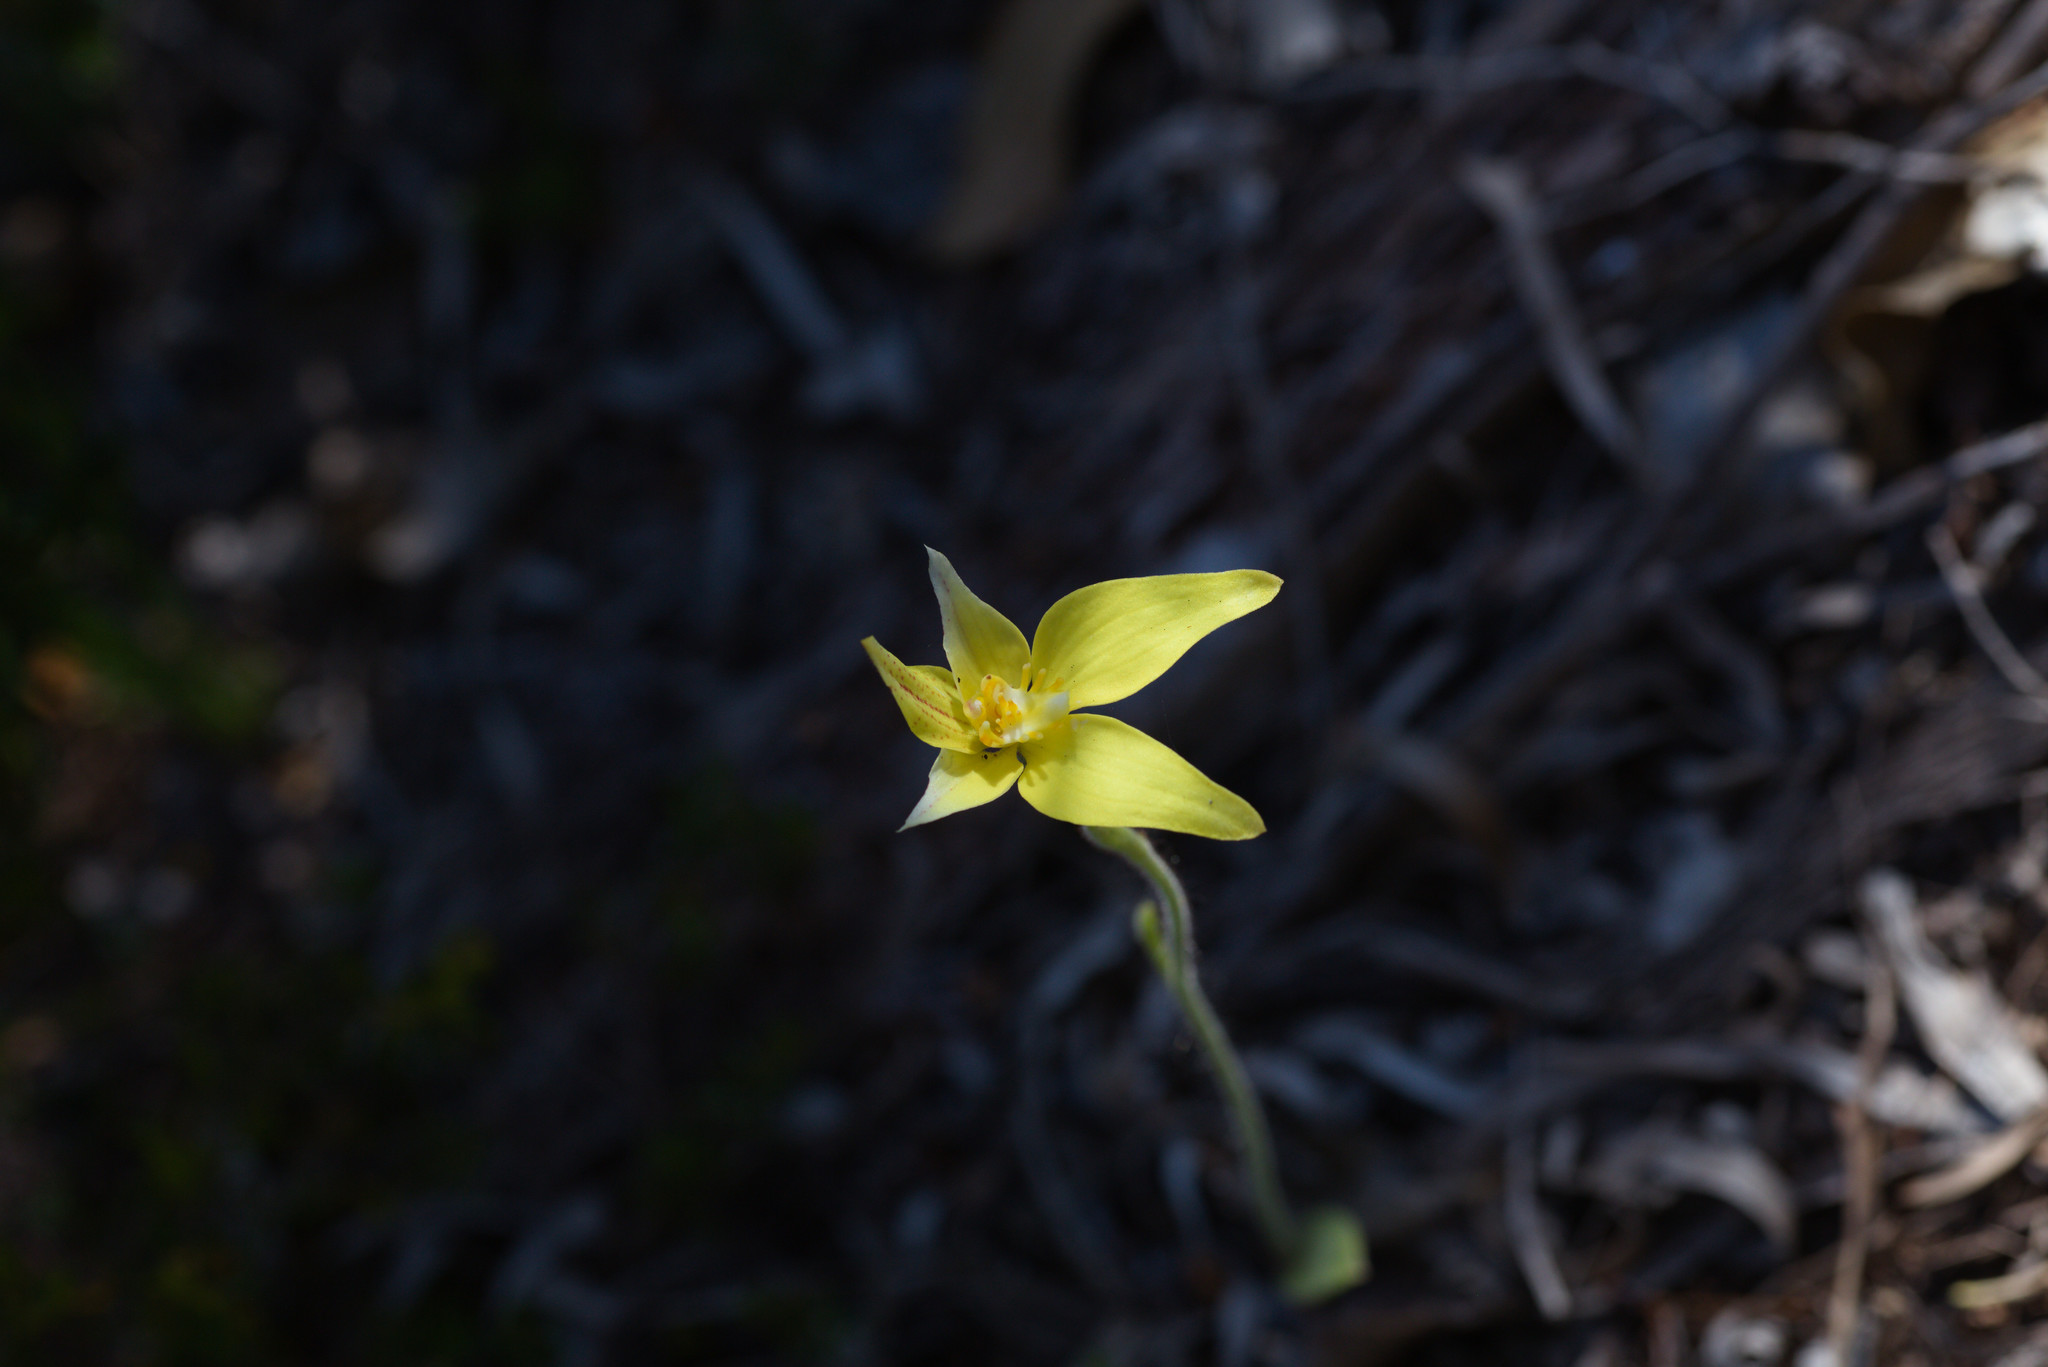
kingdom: Plantae
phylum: Tracheophyta
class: Liliopsida
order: Asparagales
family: Orchidaceae
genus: Caladenia
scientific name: Caladenia flava
